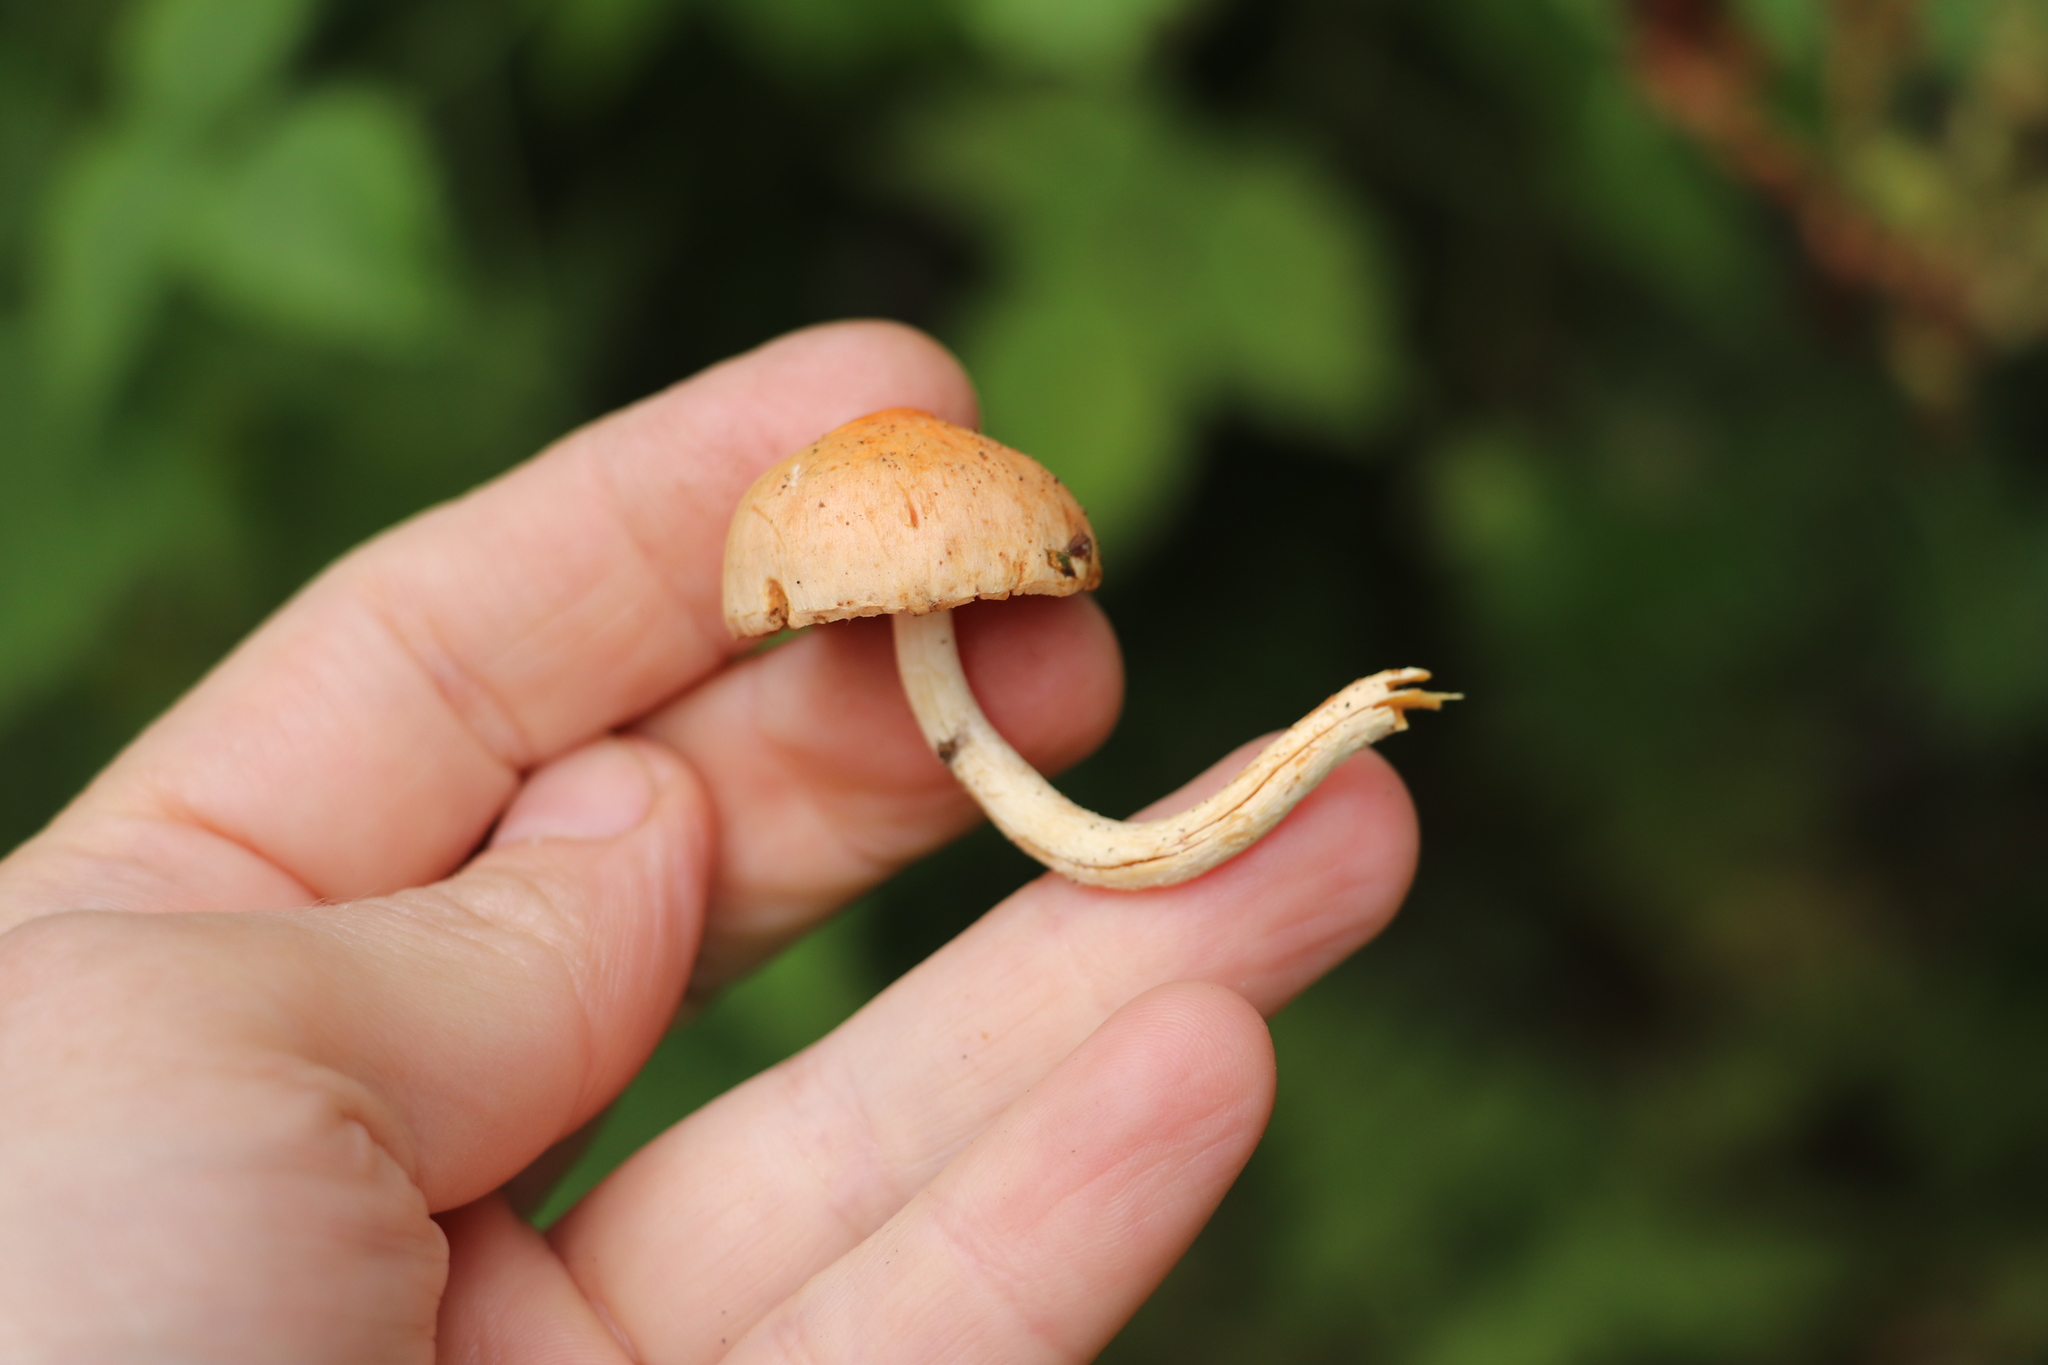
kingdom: Fungi
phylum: Basidiomycota
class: Agaricomycetes
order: Agaricales
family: Strophariaceae
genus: Pyrrhulomyces
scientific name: Pyrrhulomyces astragalinus
